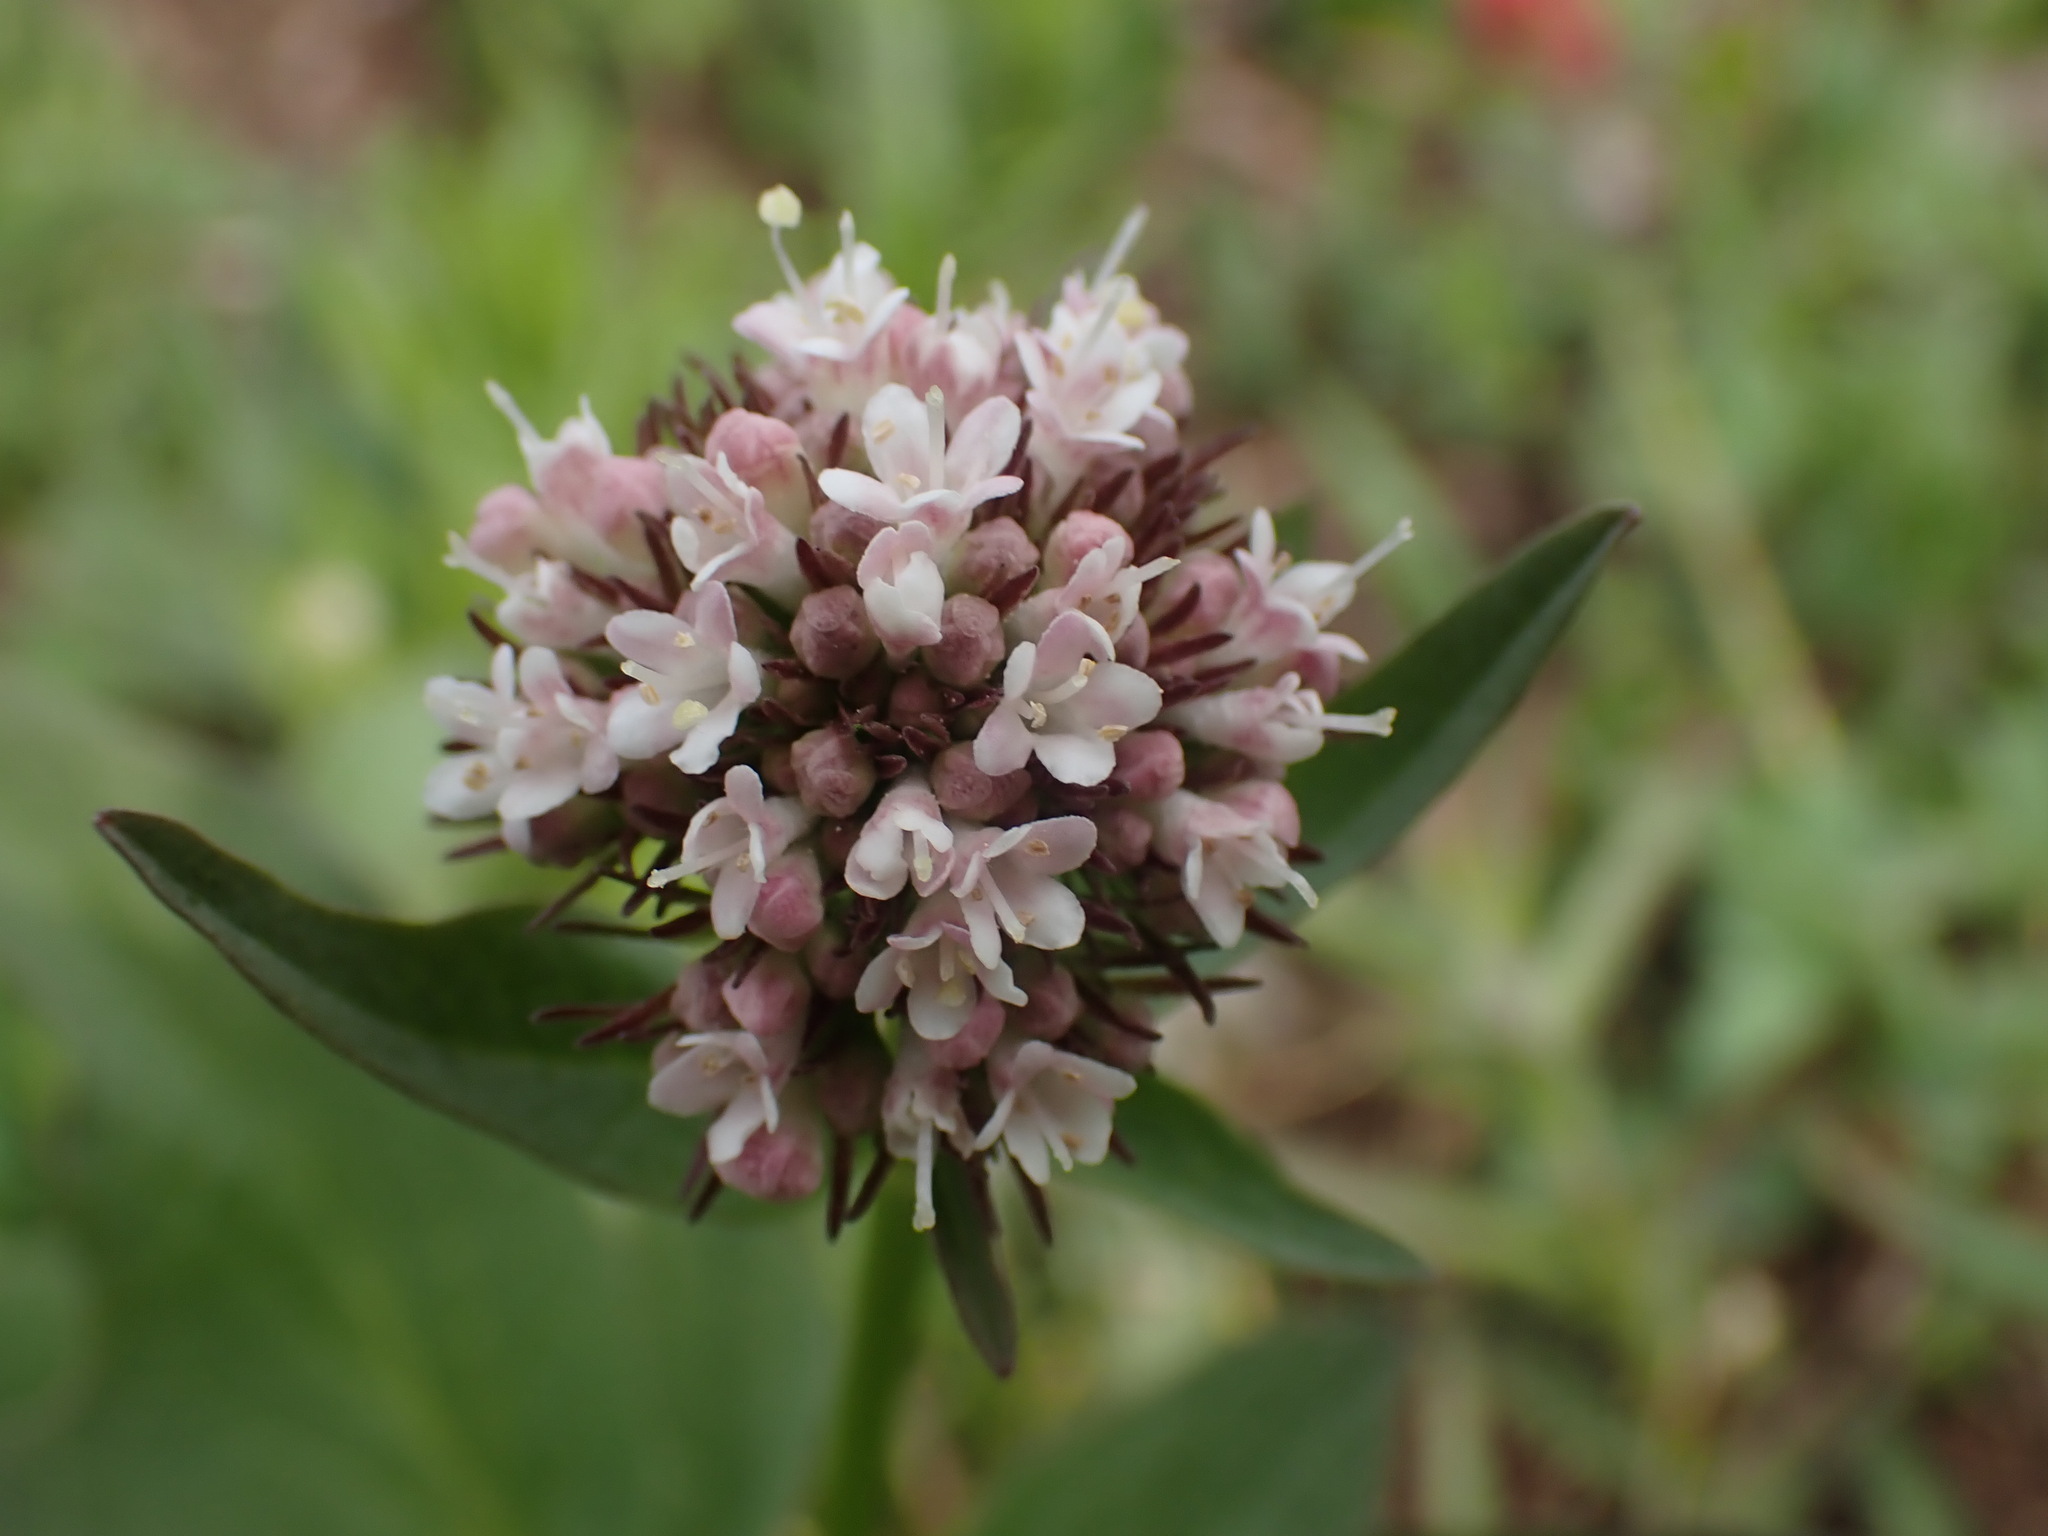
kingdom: Plantae
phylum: Tracheophyta
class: Magnoliopsida
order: Dipsacales
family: Caprifoliaceae
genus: Valeriana
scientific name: Valeriana sitchensis
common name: Pacific valerian
